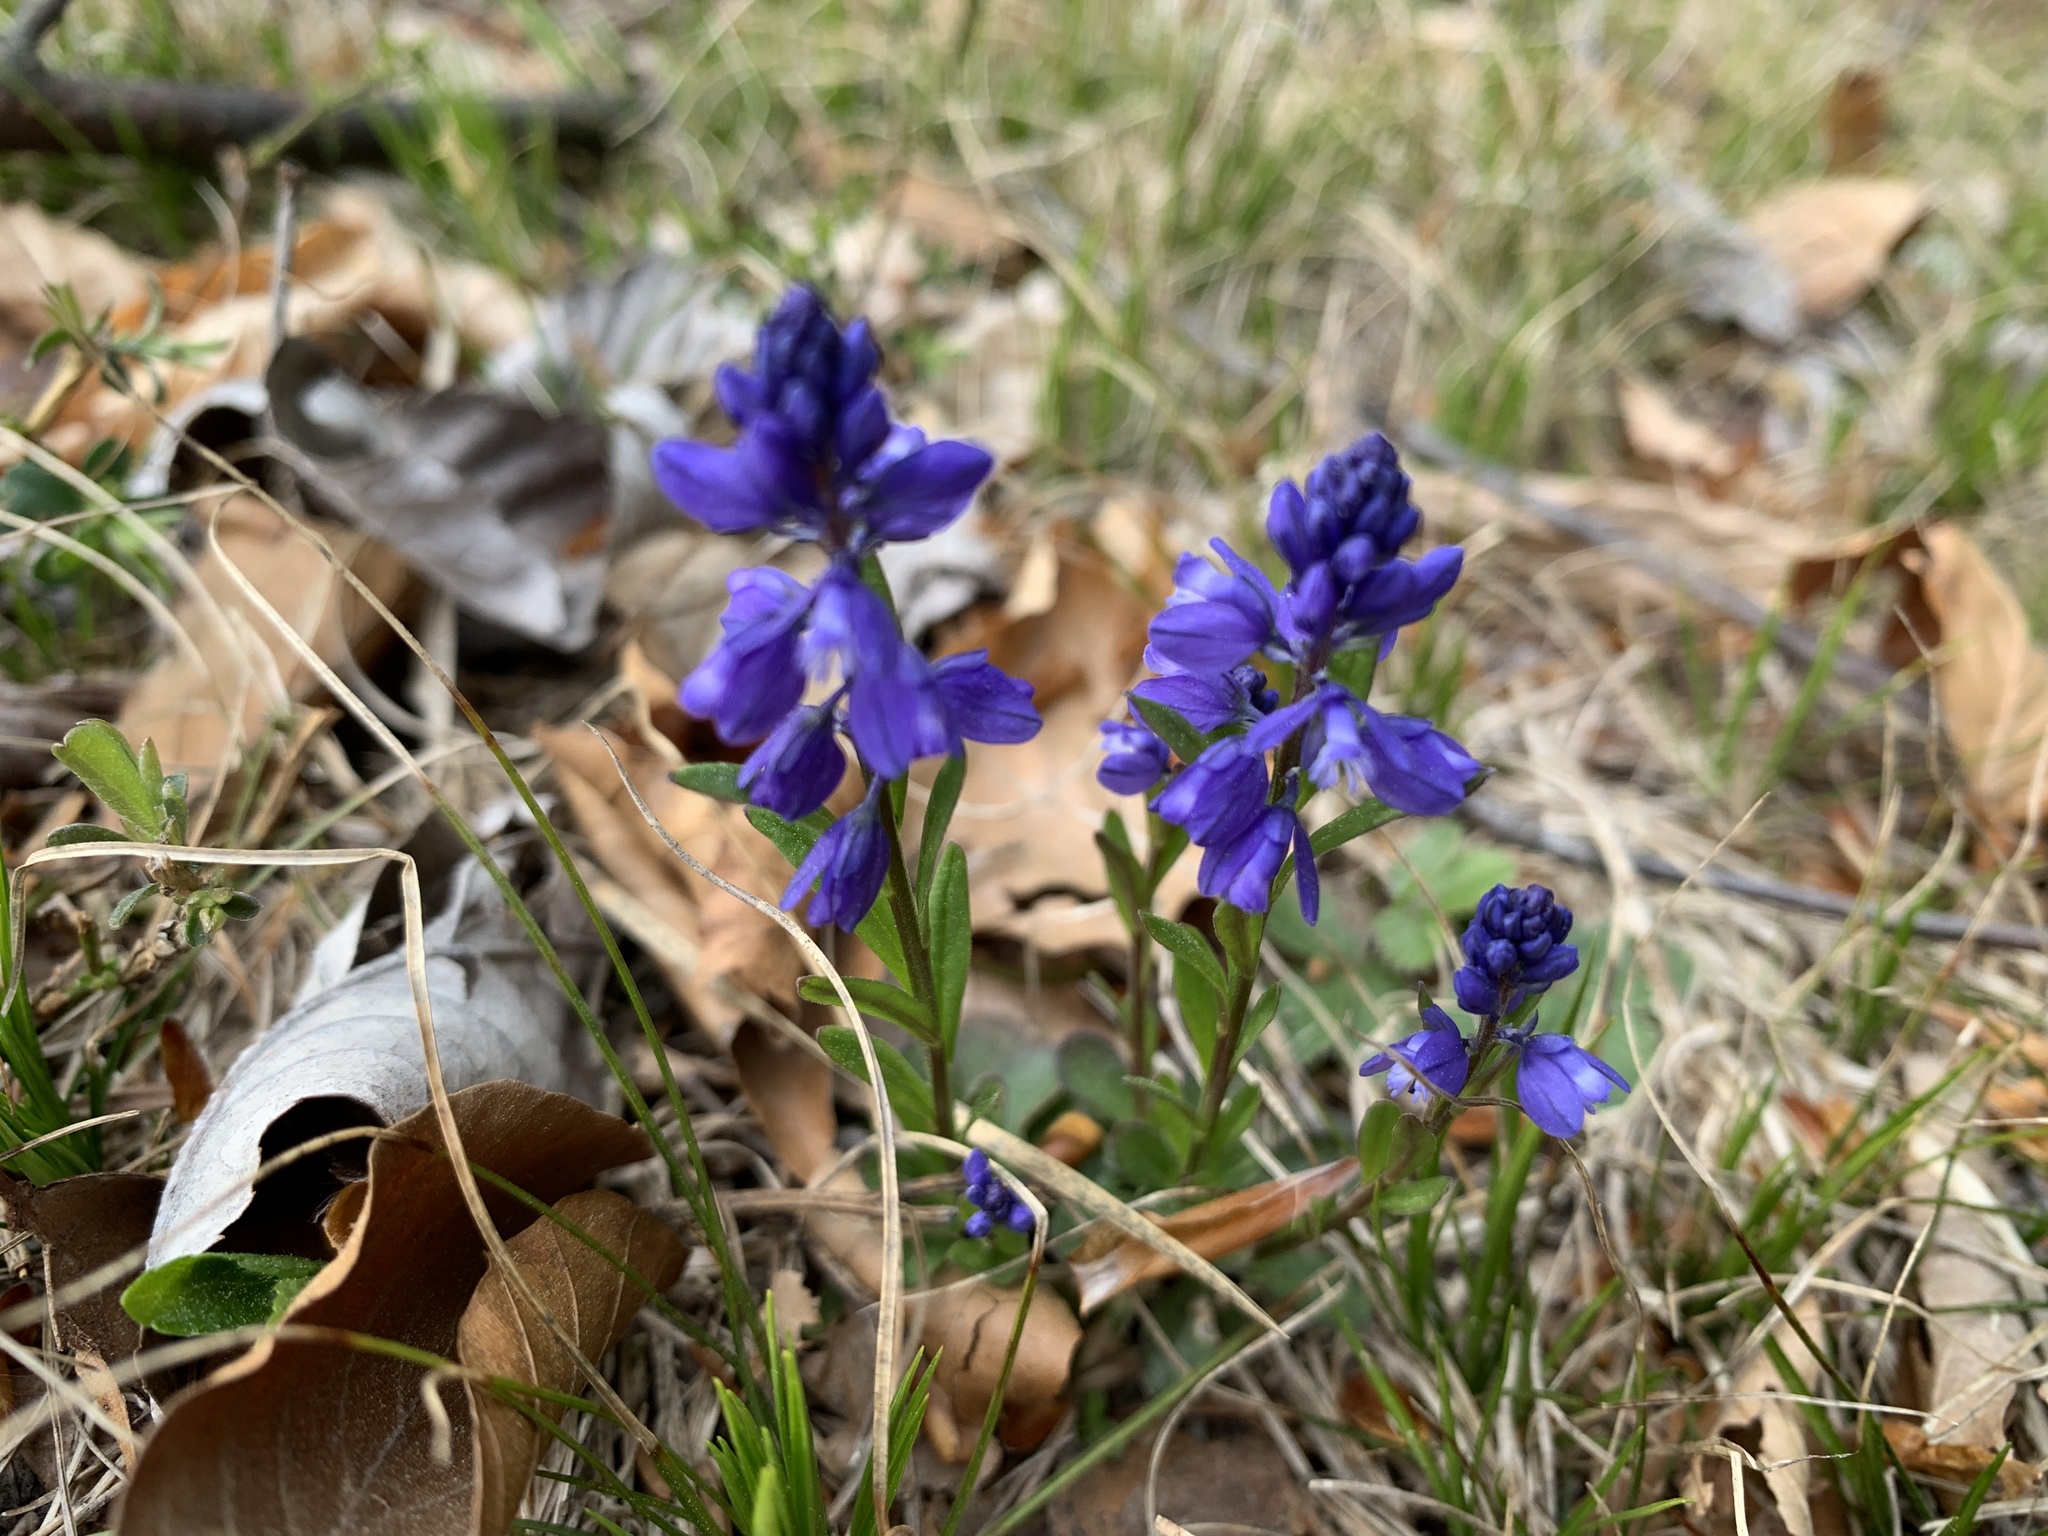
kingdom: Plantae
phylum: Tracheophyta
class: Magnoliopsida
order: Fabales
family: Polygalaceae
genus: Polygala
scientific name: Polygala amarella
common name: Dwarf milkwort
